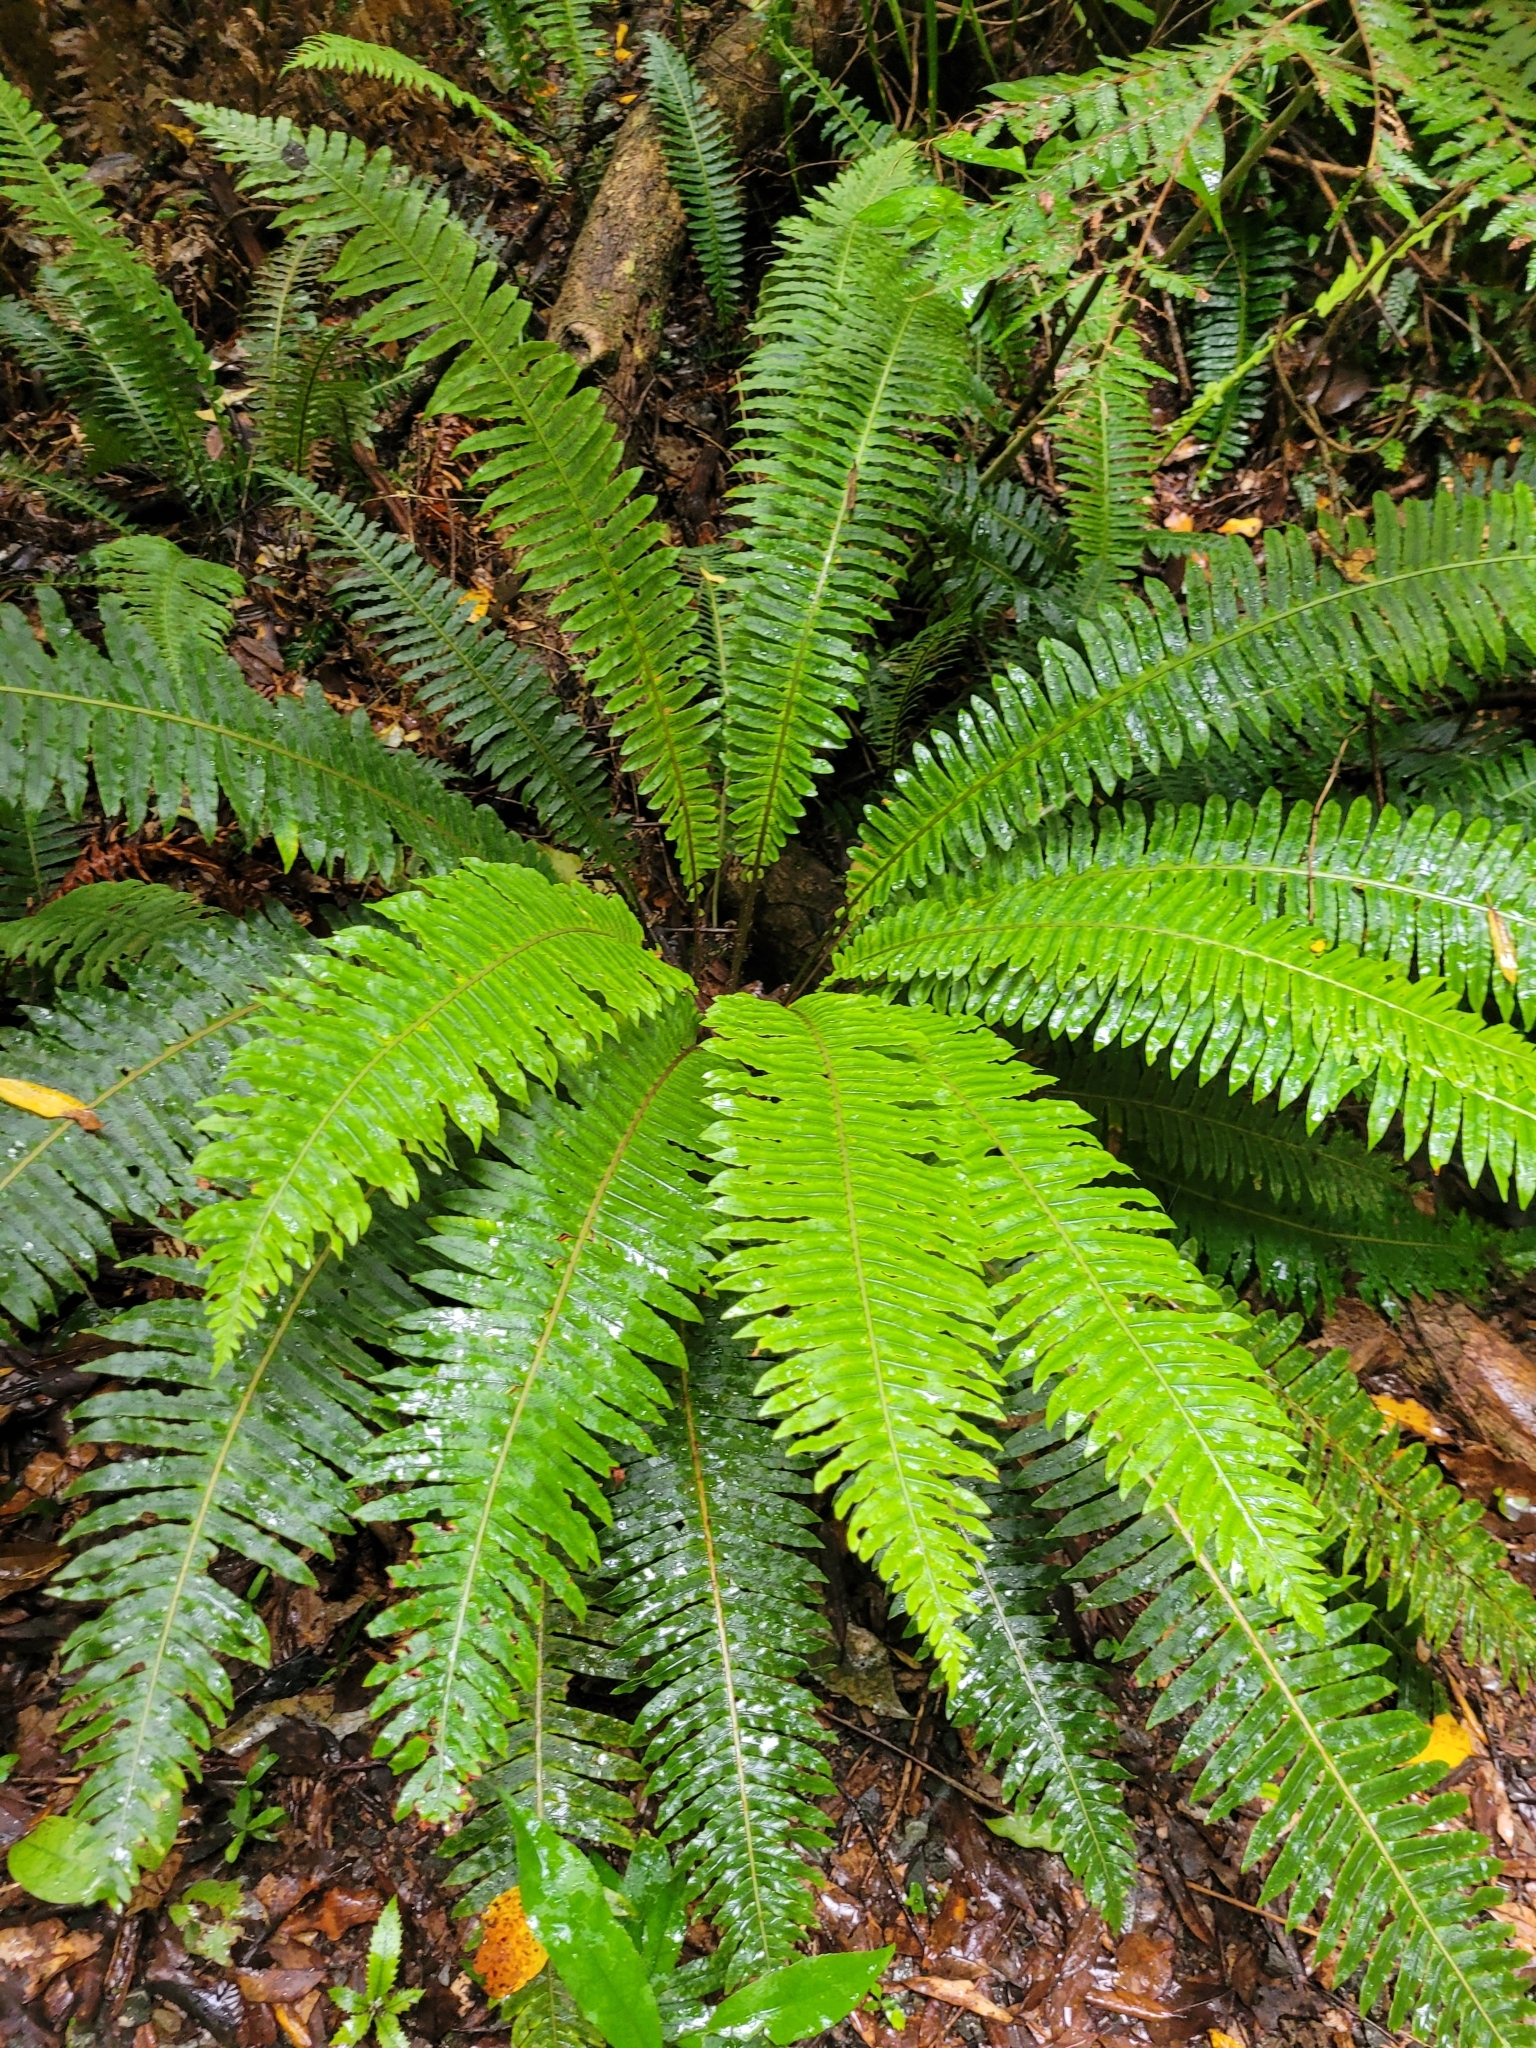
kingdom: Plantae
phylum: Tracheophyta
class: Polypodiopsida
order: Polypodiales
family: Blechnaceae
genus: Lomaria
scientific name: Lomaria discolor
